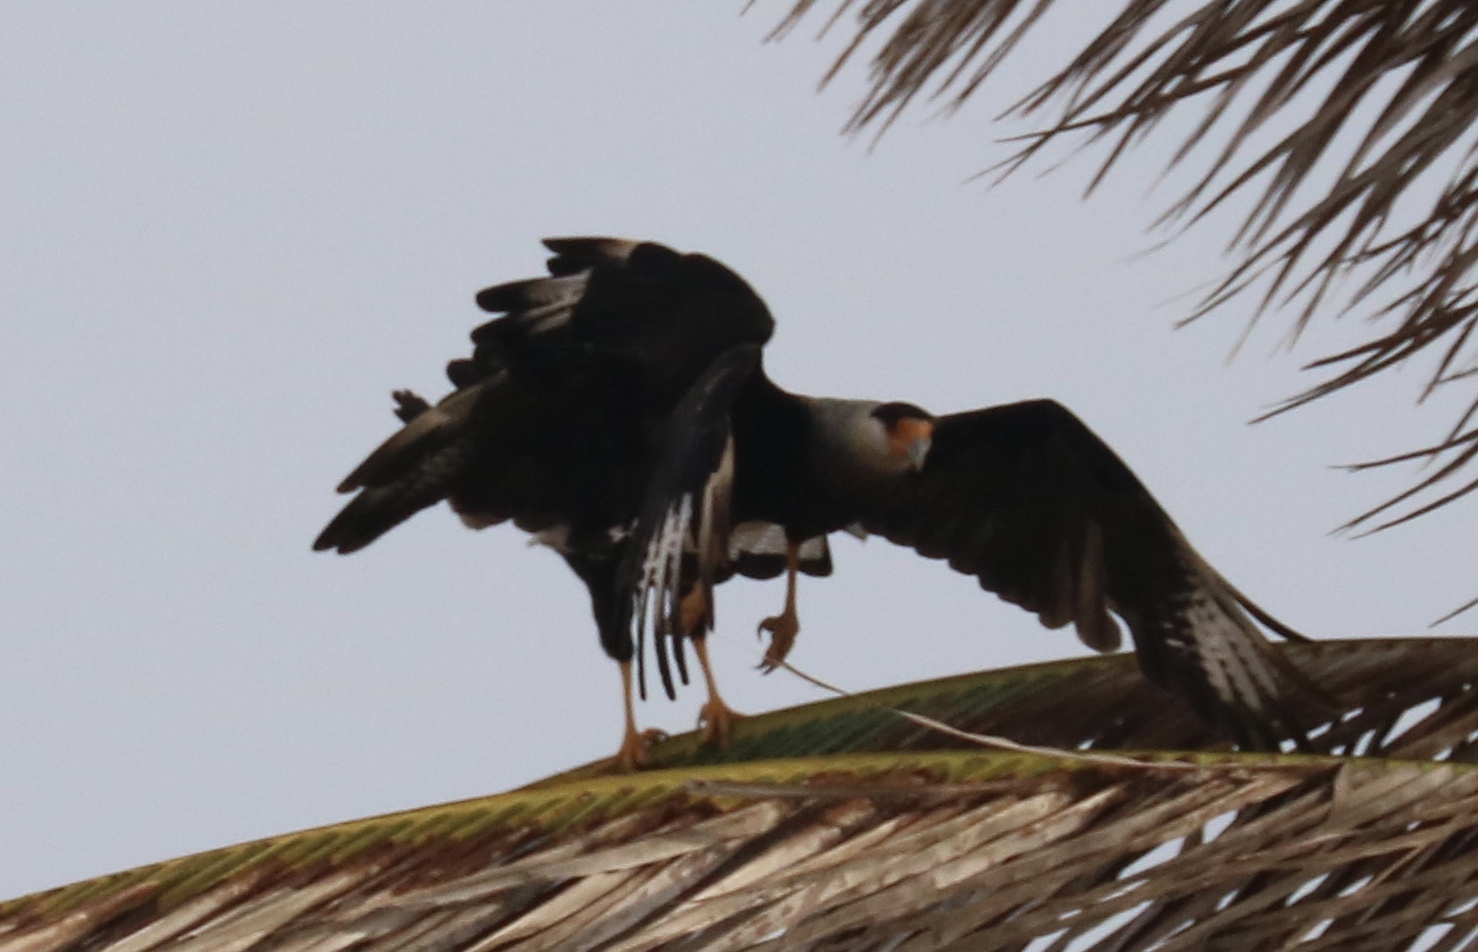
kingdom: Animalia
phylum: Chordata
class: Aves
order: Falconiformes
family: Falconidae
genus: Caracara
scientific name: Caracara plancus
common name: Southern caracara
